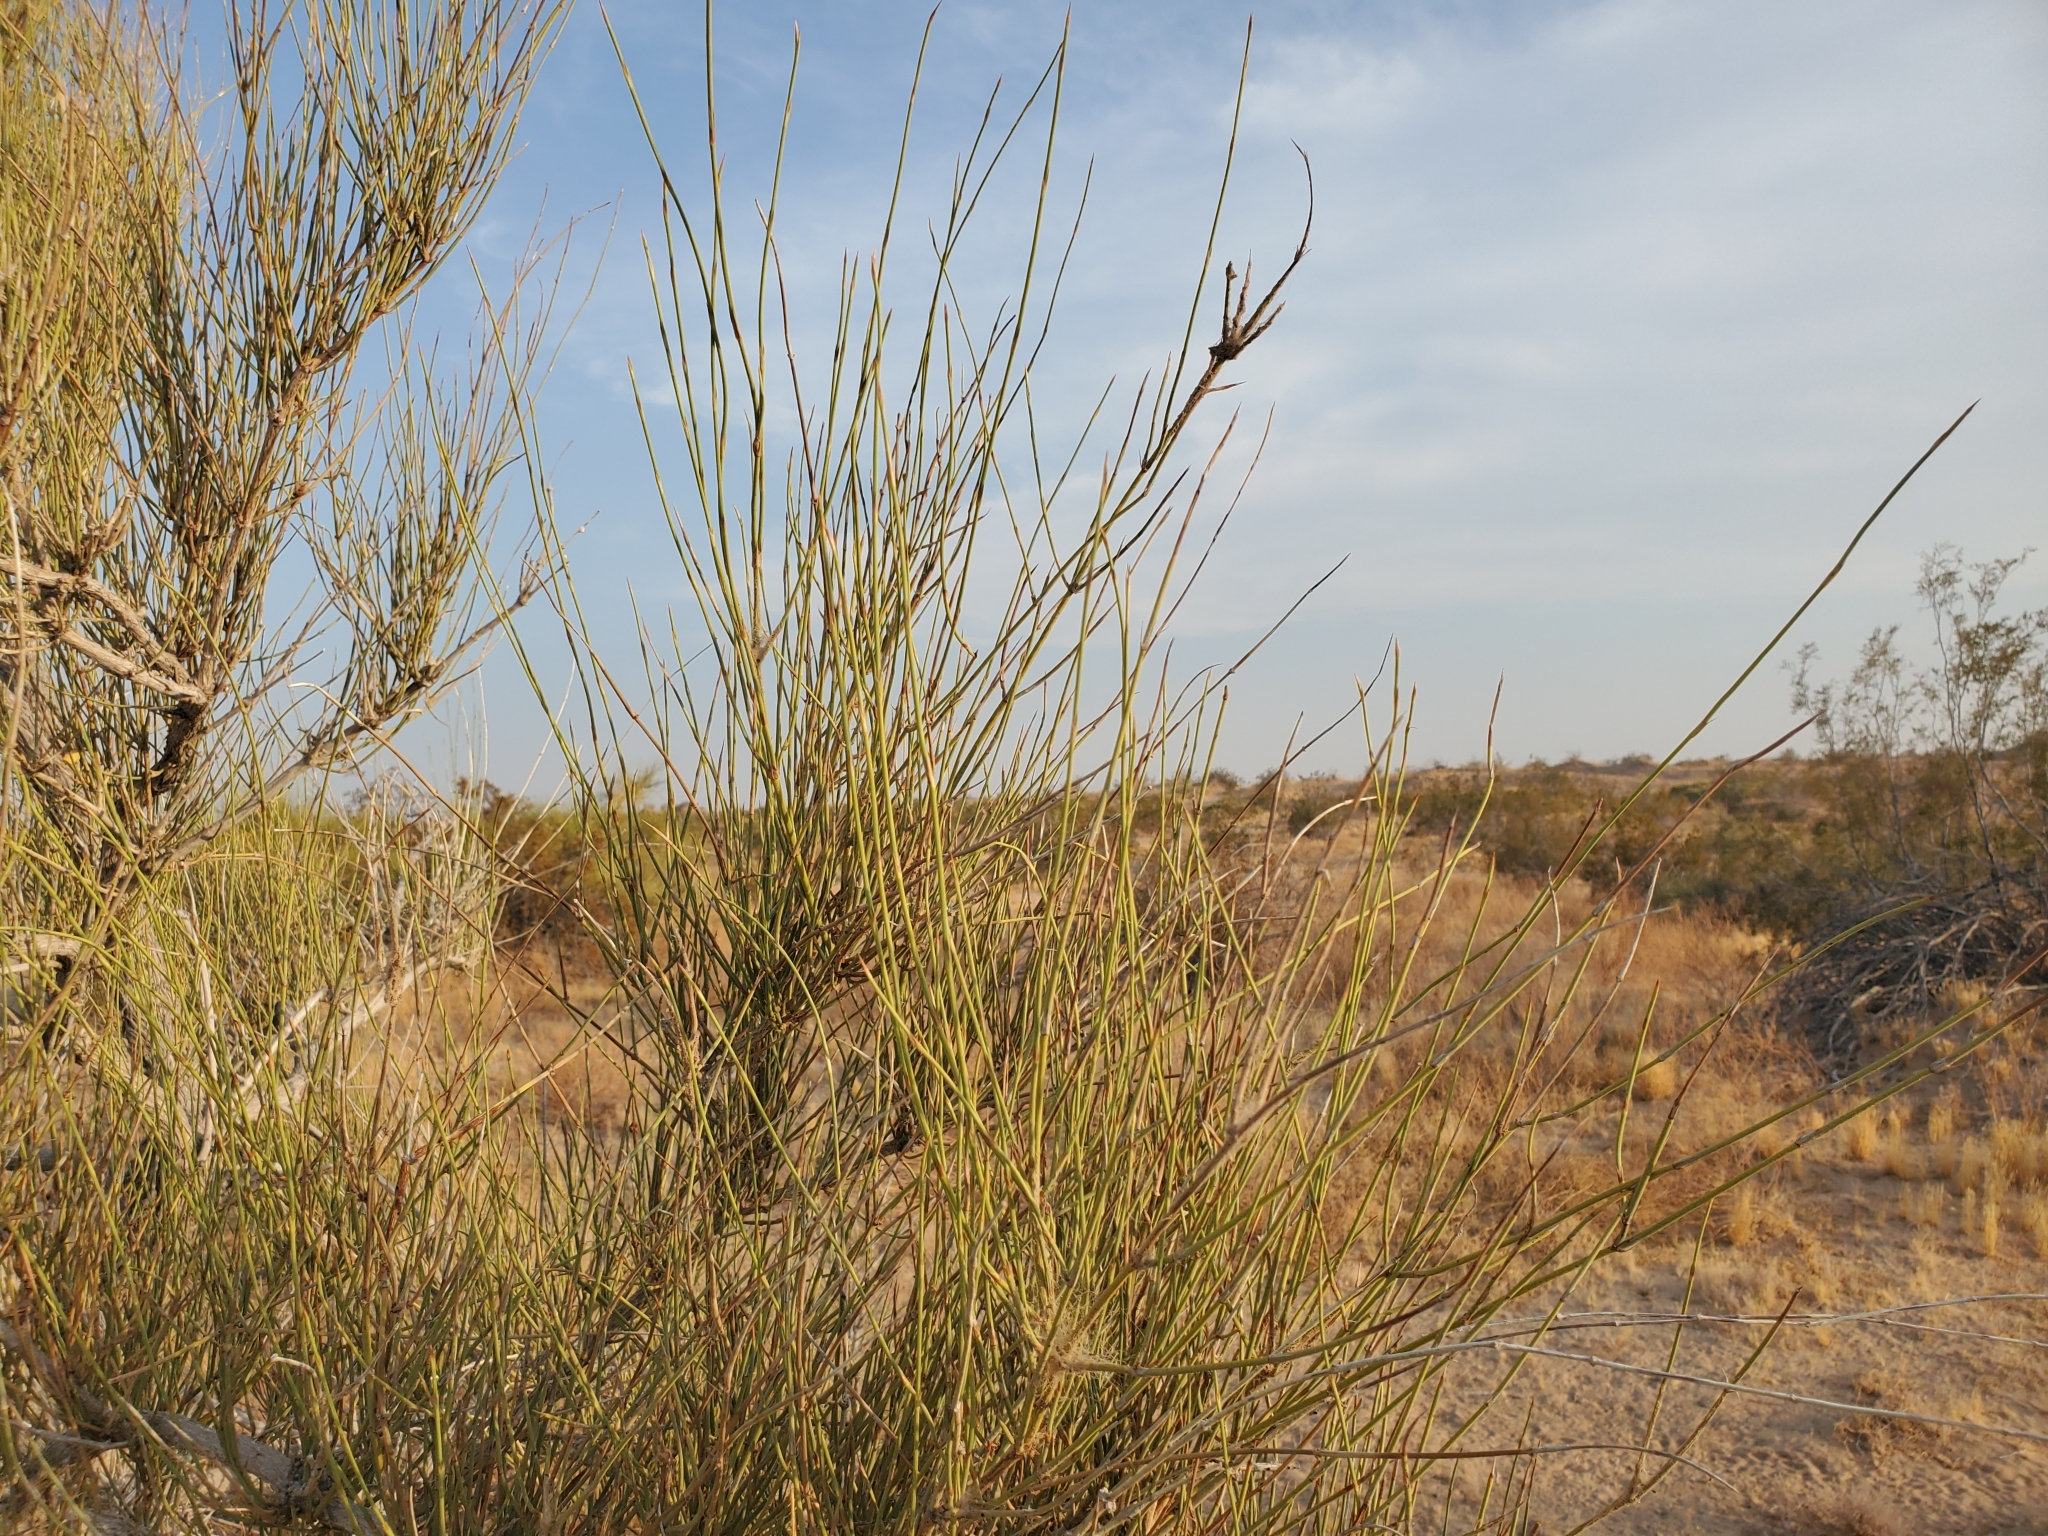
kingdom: Plantae
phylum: Tracheophyta
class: Gnetopsida
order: Ephedrales
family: Ephedraceae
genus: Ephedra
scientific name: Ephedra trifurca
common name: Mexican-tea
